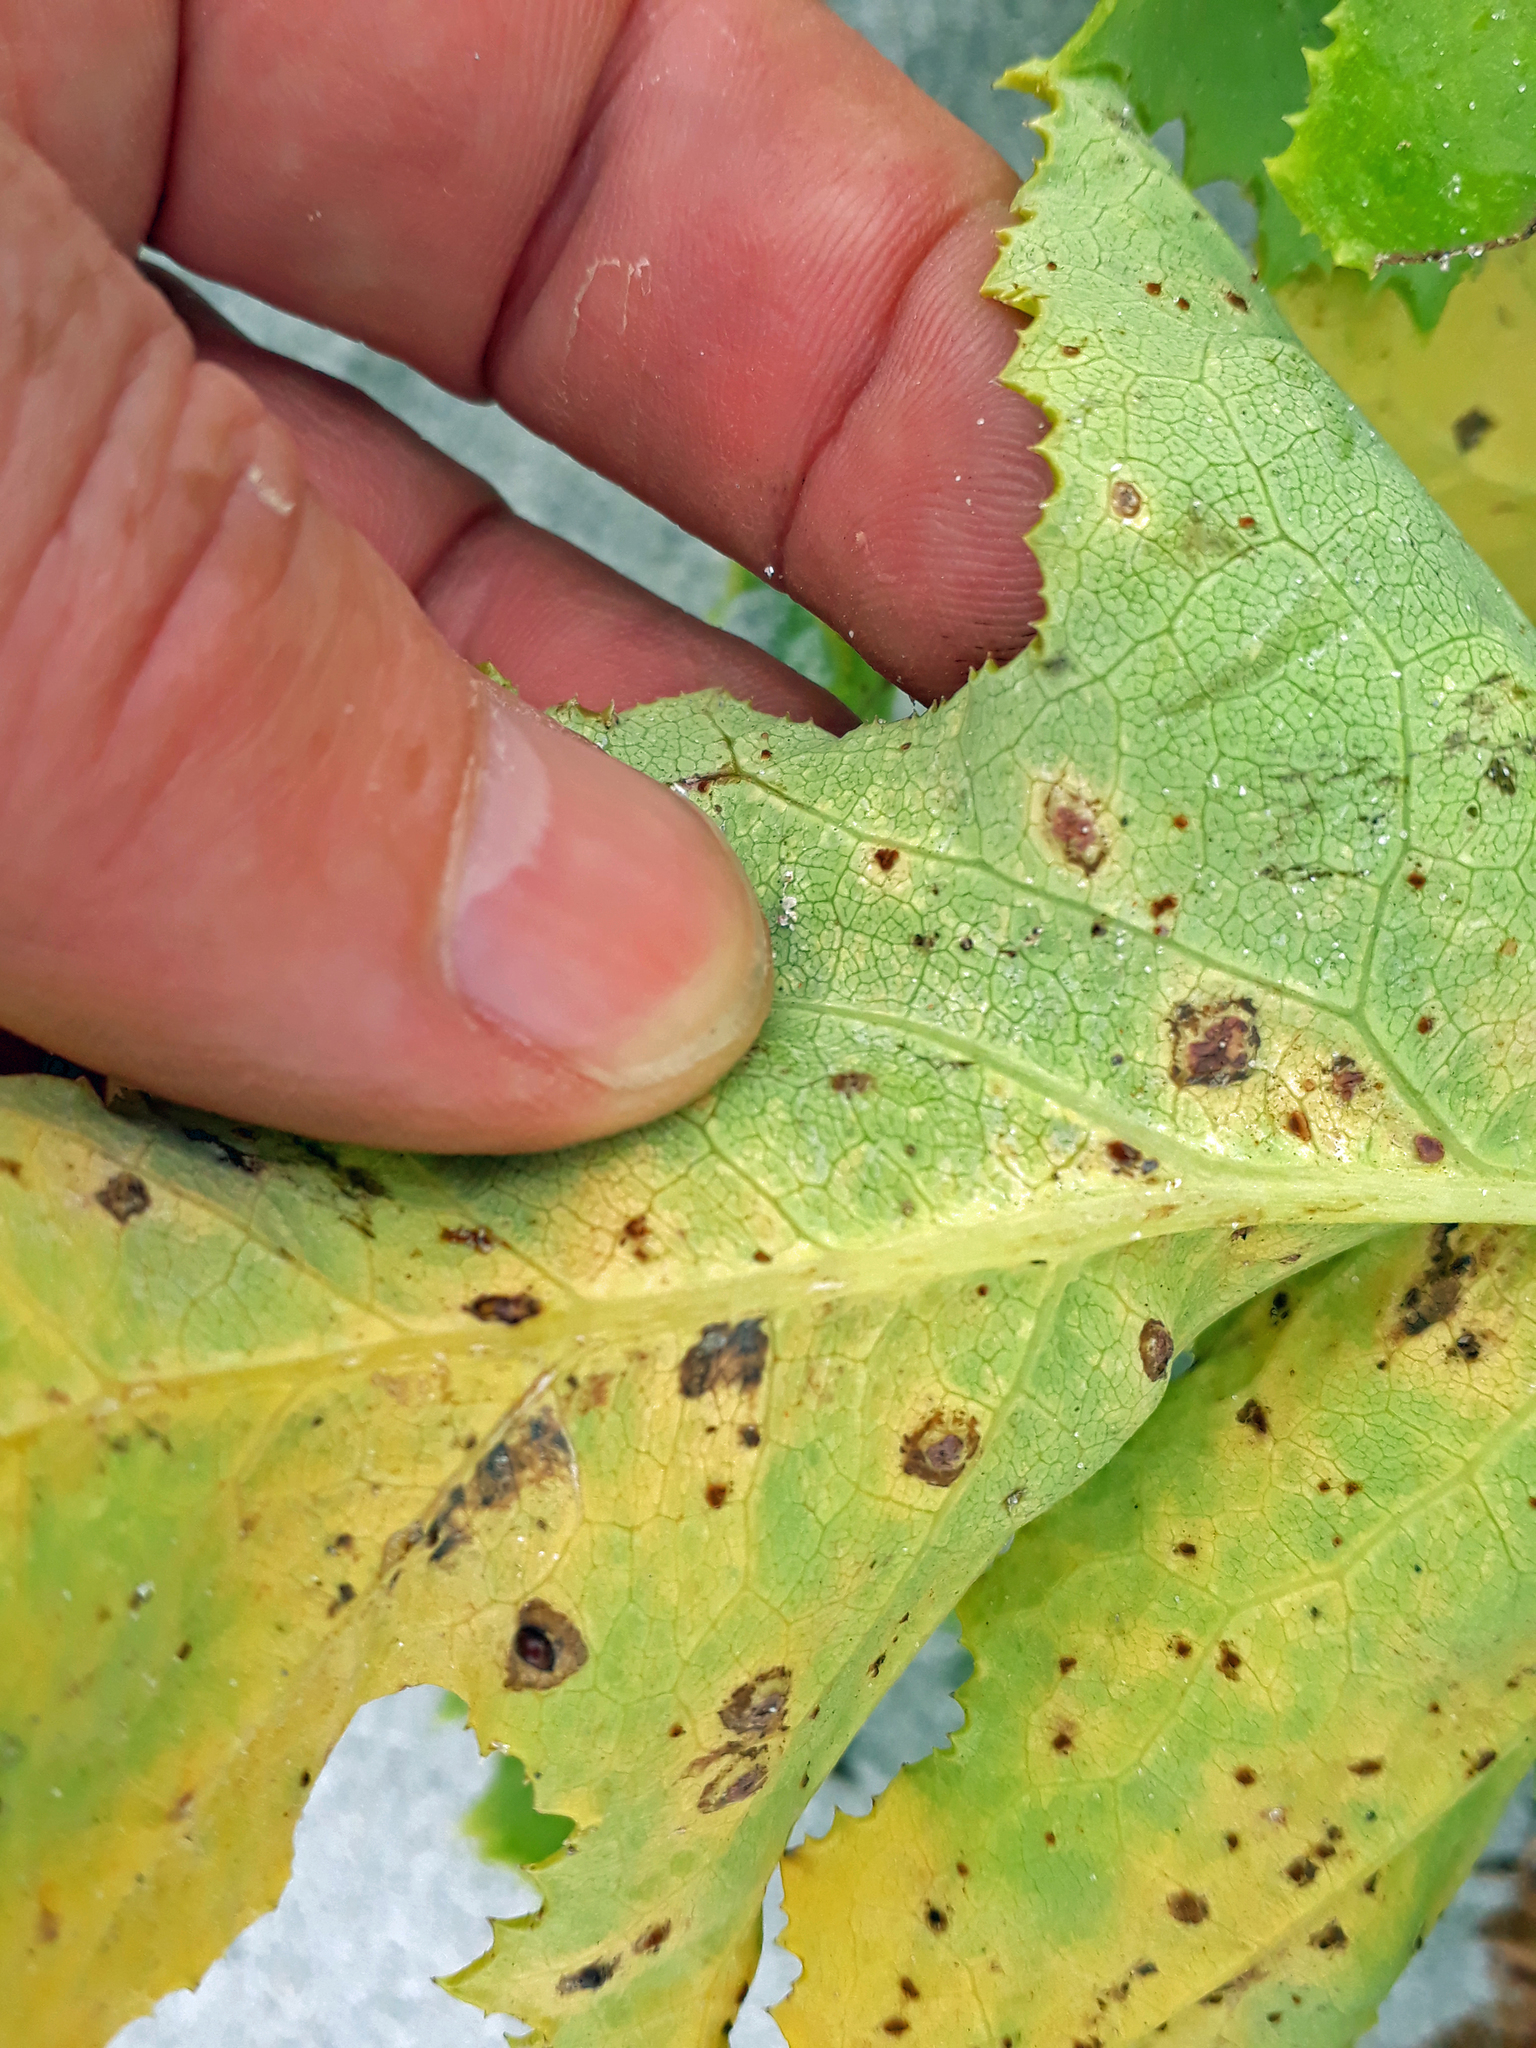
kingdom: Fungi
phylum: Basidiomycota
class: Pucciniomycetes
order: Pucciniales
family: Pucciniaceae
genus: Puccinia
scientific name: Puccinia embergeriae
